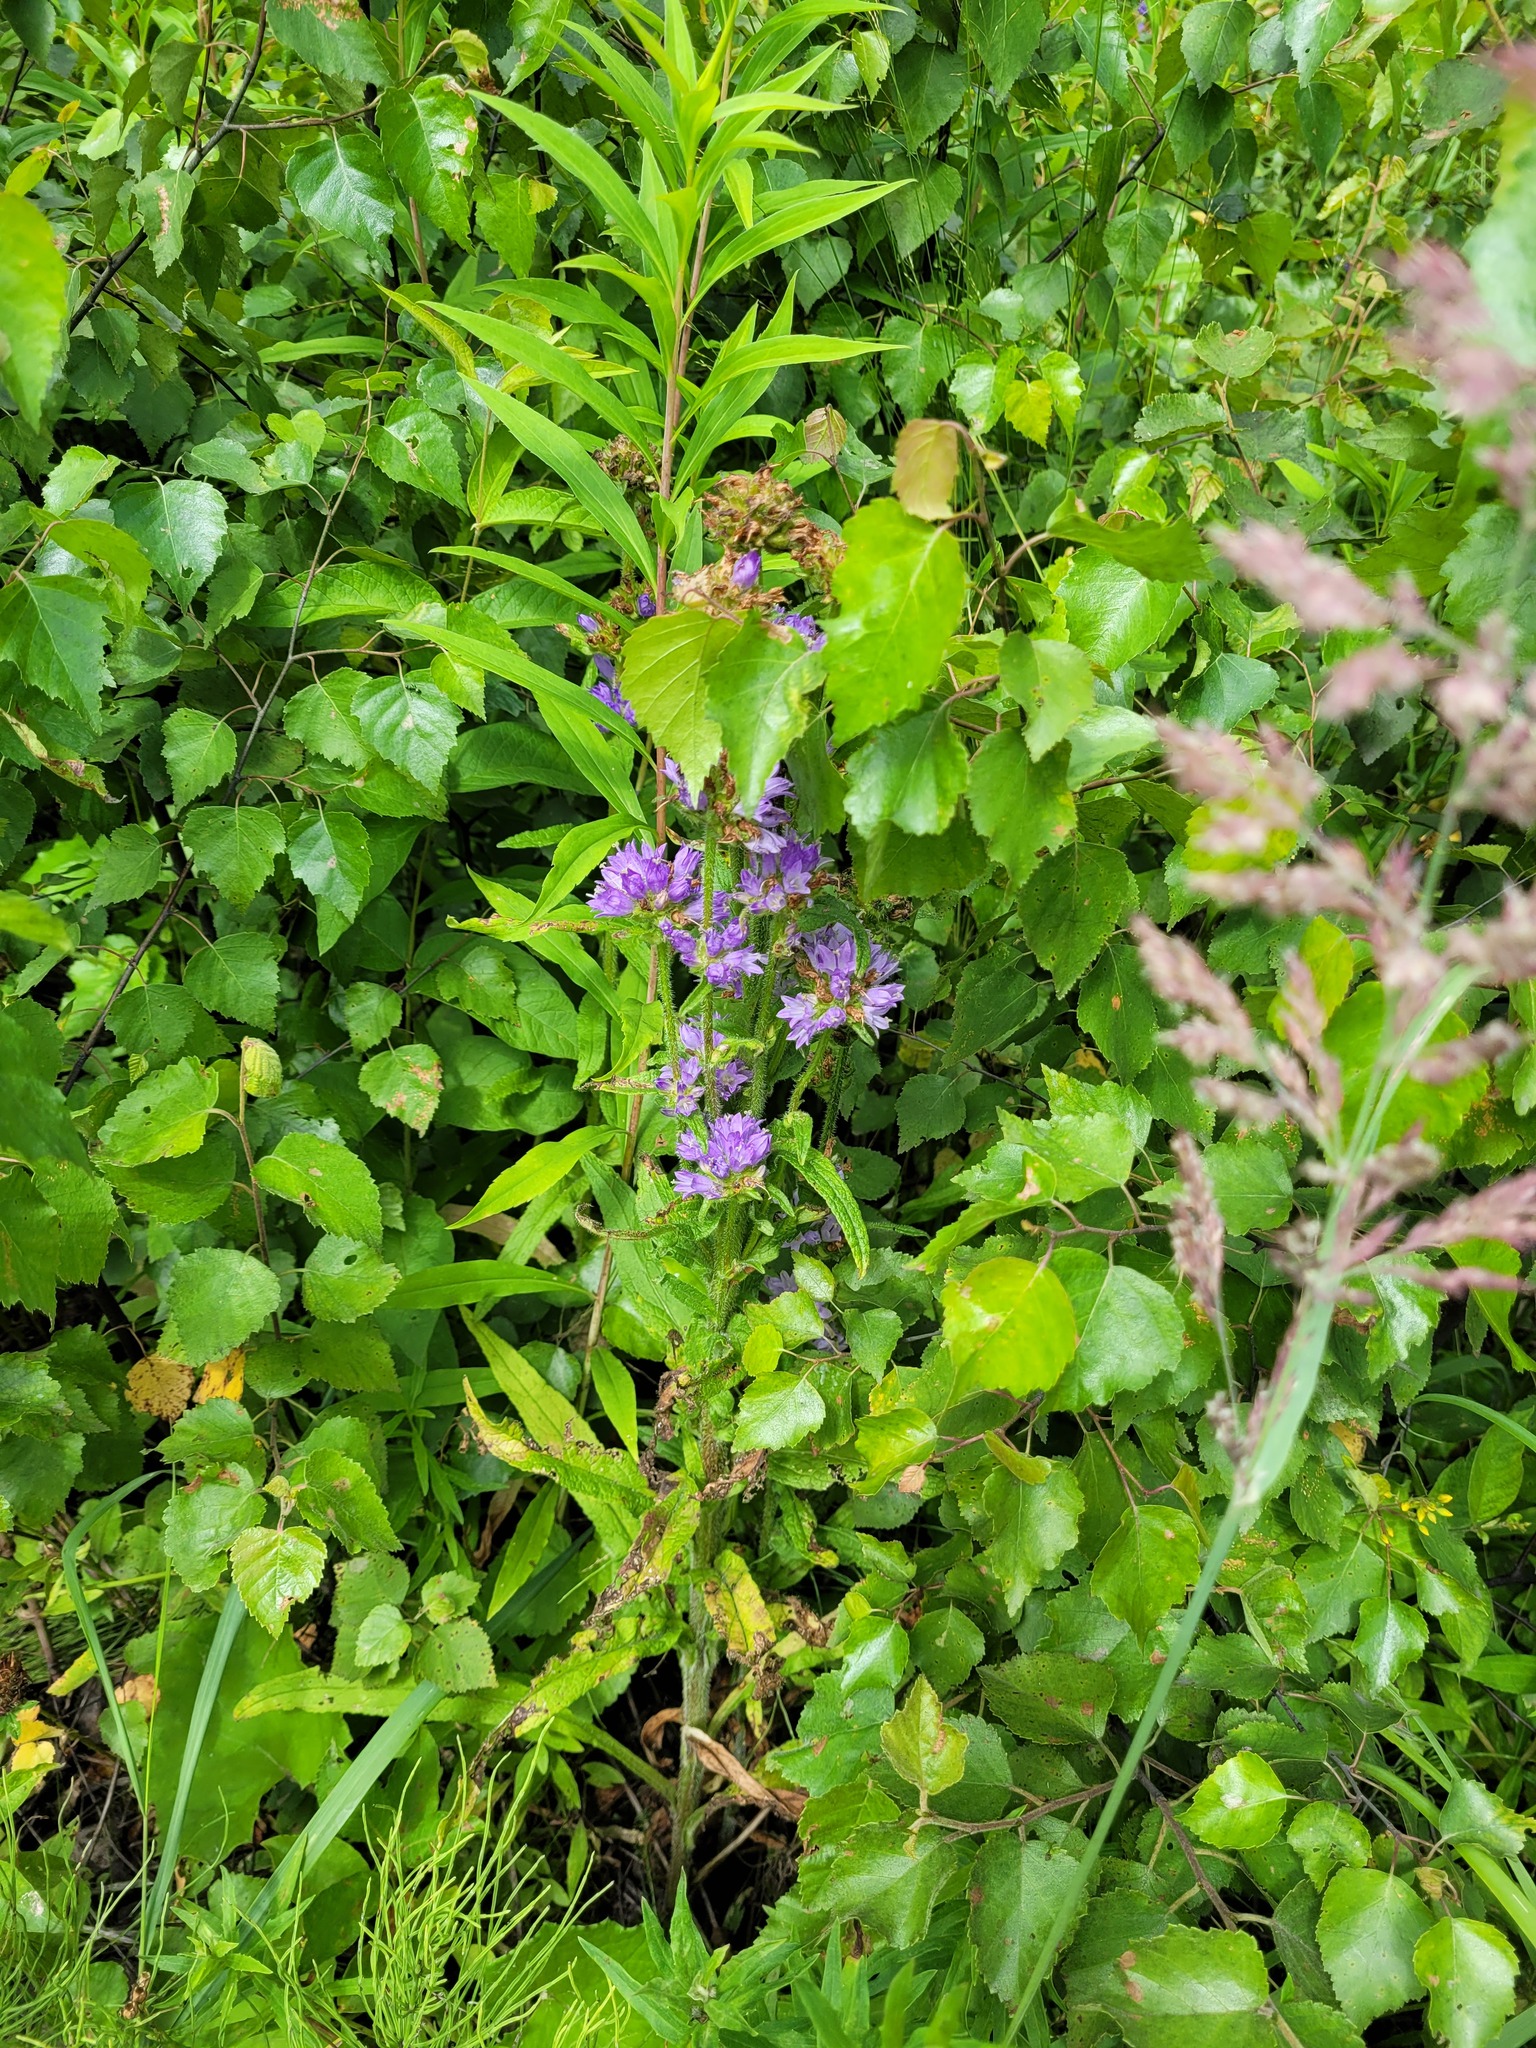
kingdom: Plantae
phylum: Tracheophyta
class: Magnoliopsida
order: Asterales
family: Campanulaceae
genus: Campanula
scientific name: Campanula cervicaria
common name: Bristly bellflower
